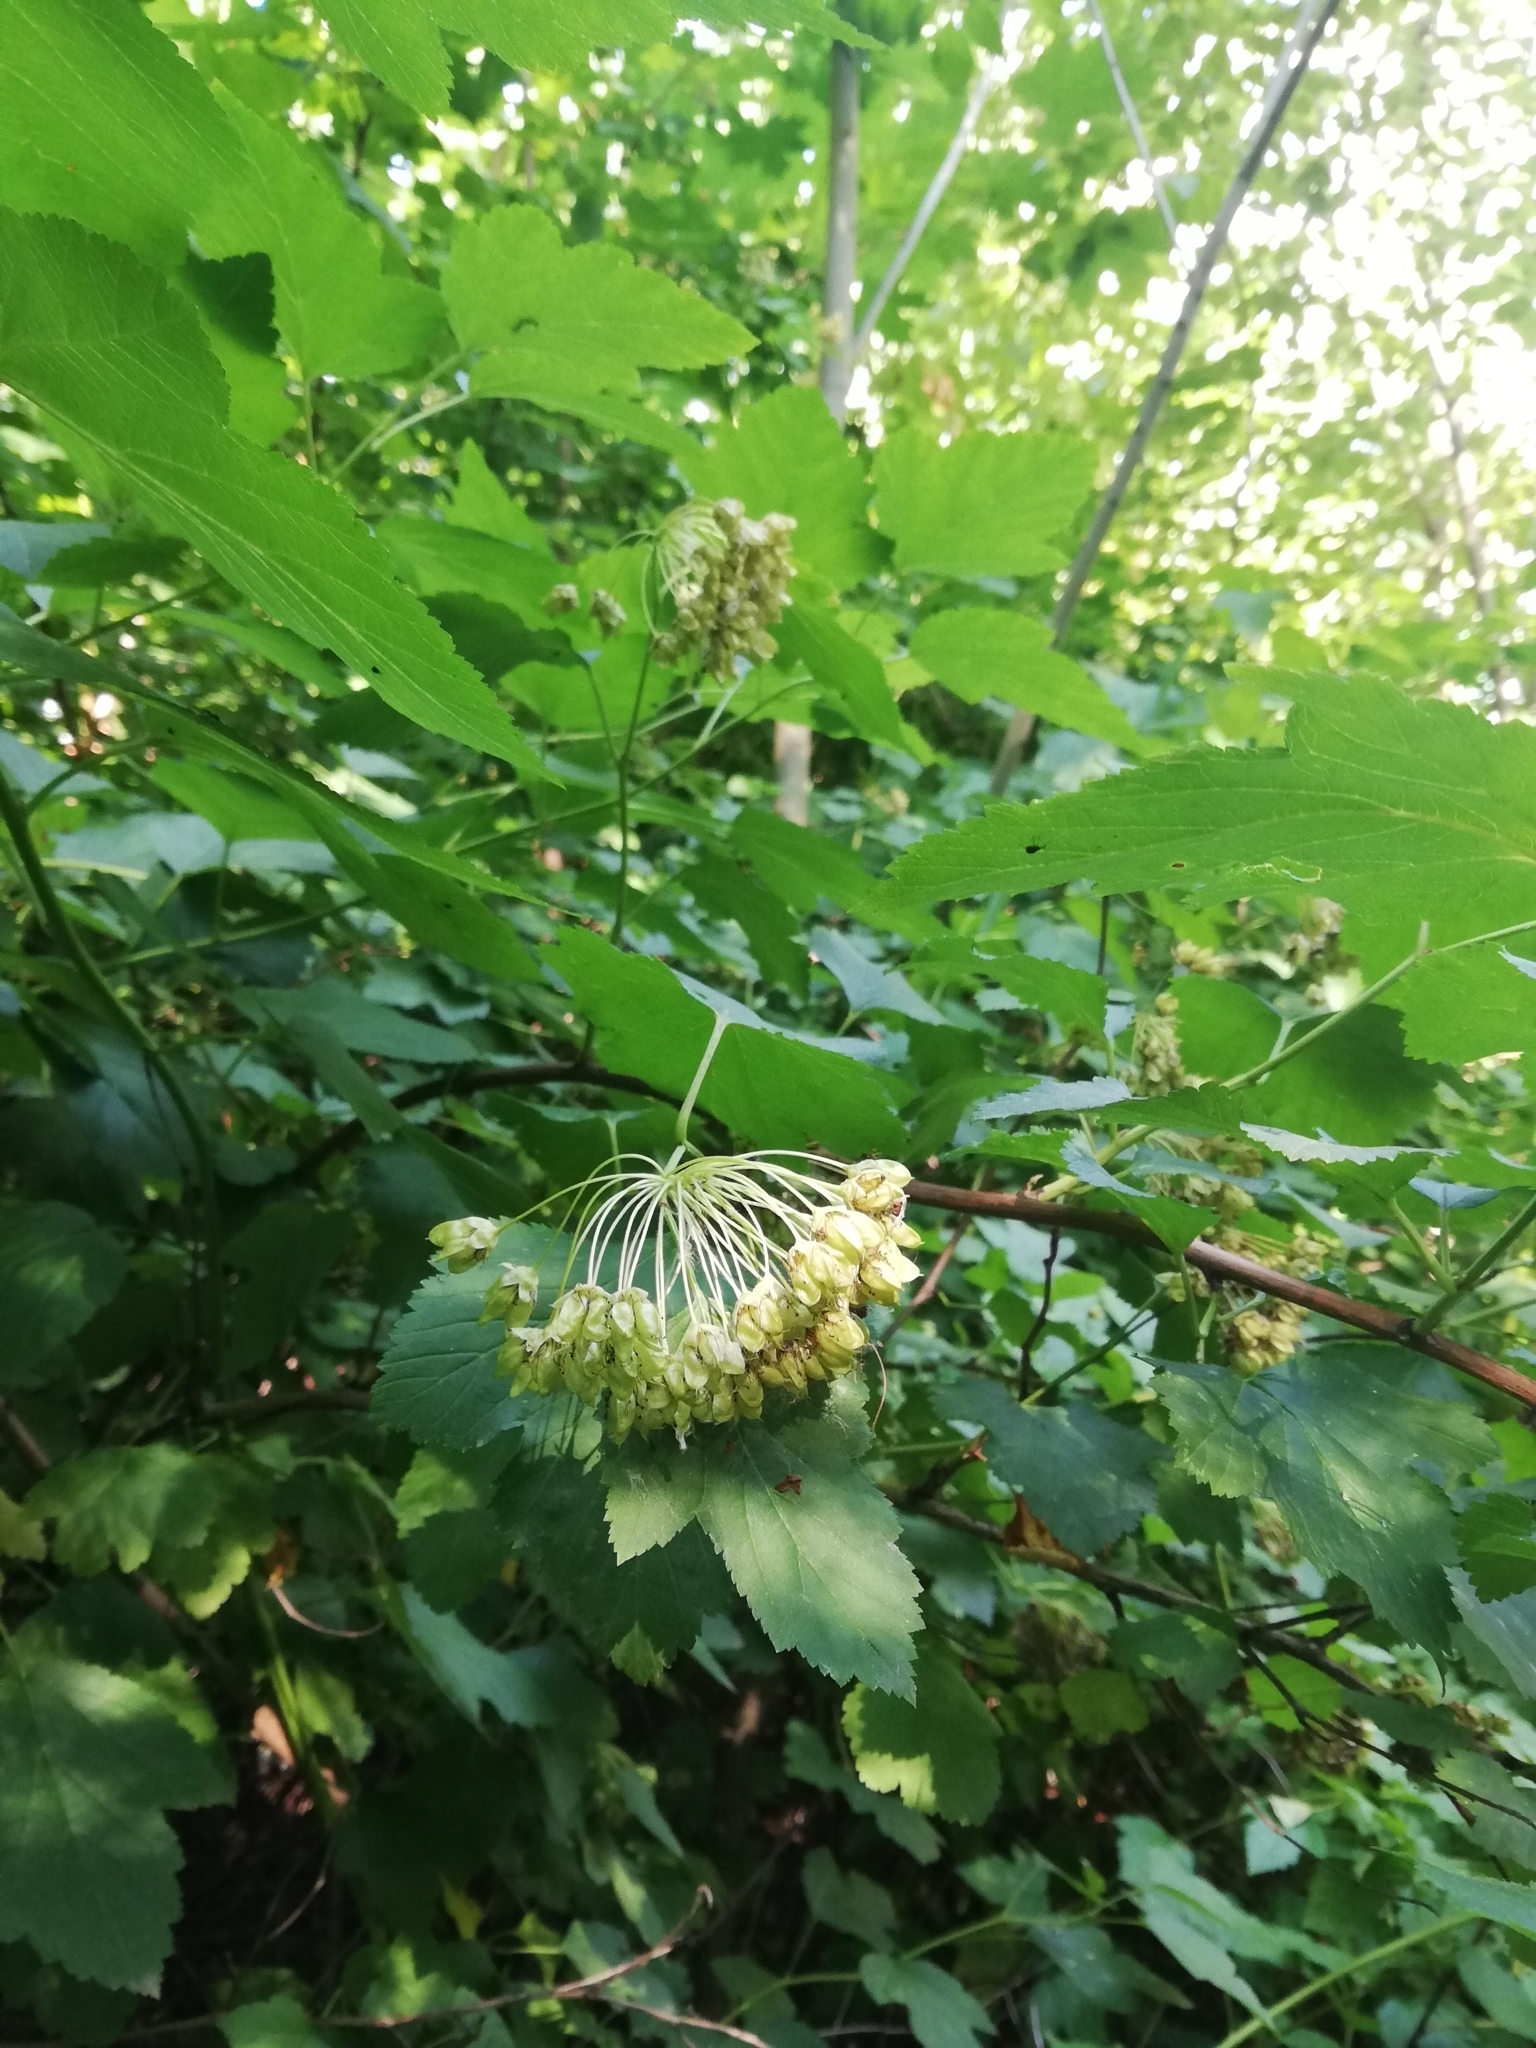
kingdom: Plantae
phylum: Tracheophyta
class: Magnoliopsida
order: Rosales
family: Rosaceae
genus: Physocarpus
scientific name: Physocarpus opulifolius
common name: Ninebark
